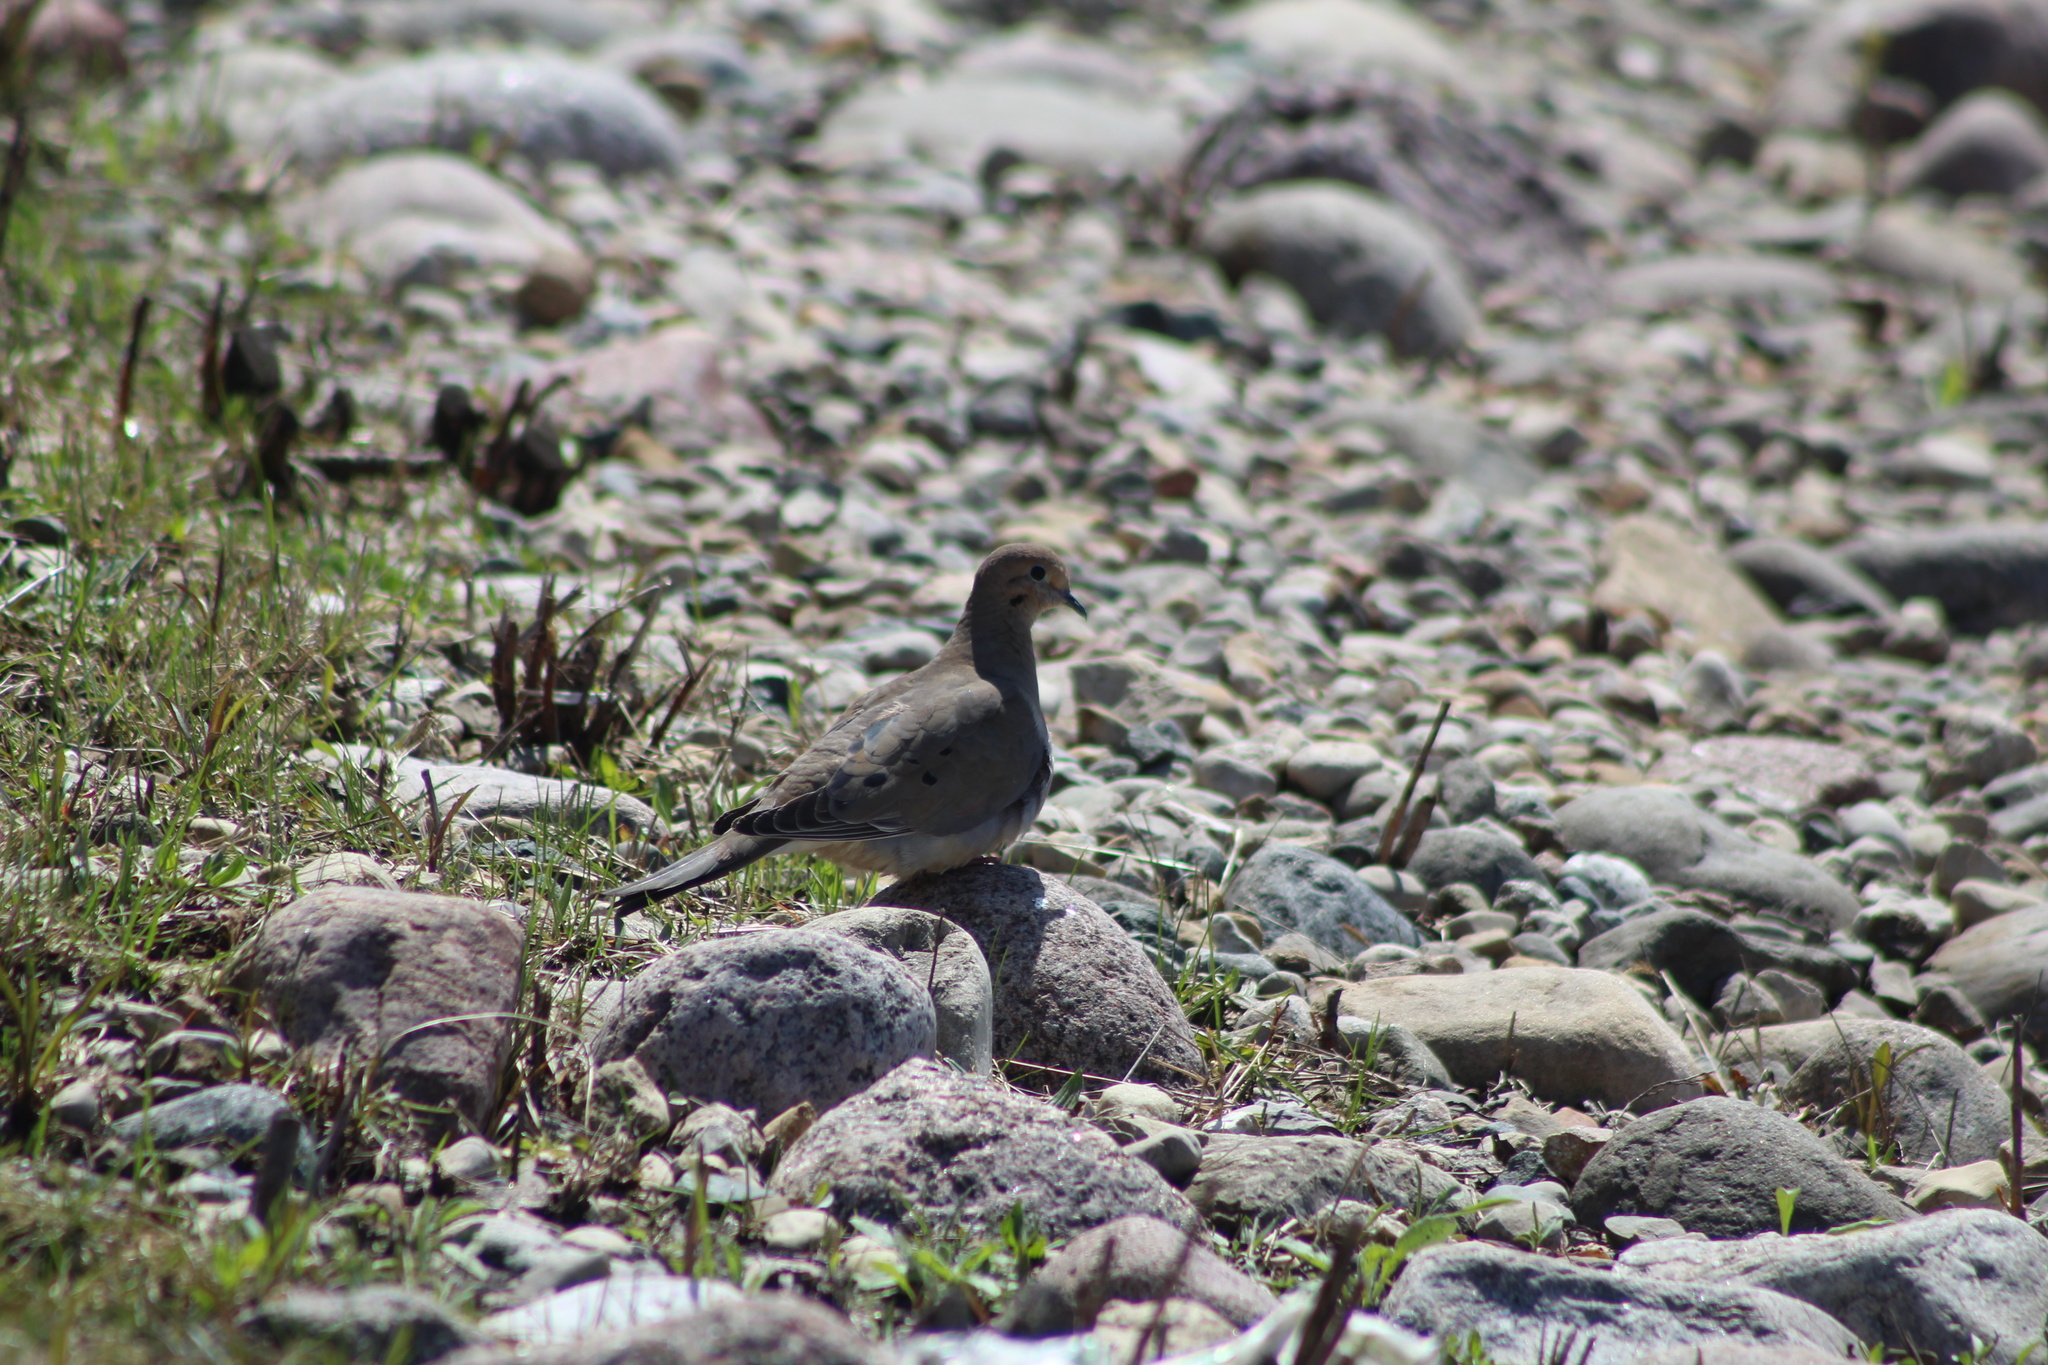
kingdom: Animalia
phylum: Chordata
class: Aves
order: Columbiformes
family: Columbidae
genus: Zenaida
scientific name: Zenaida macroura
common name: Mourning dove
